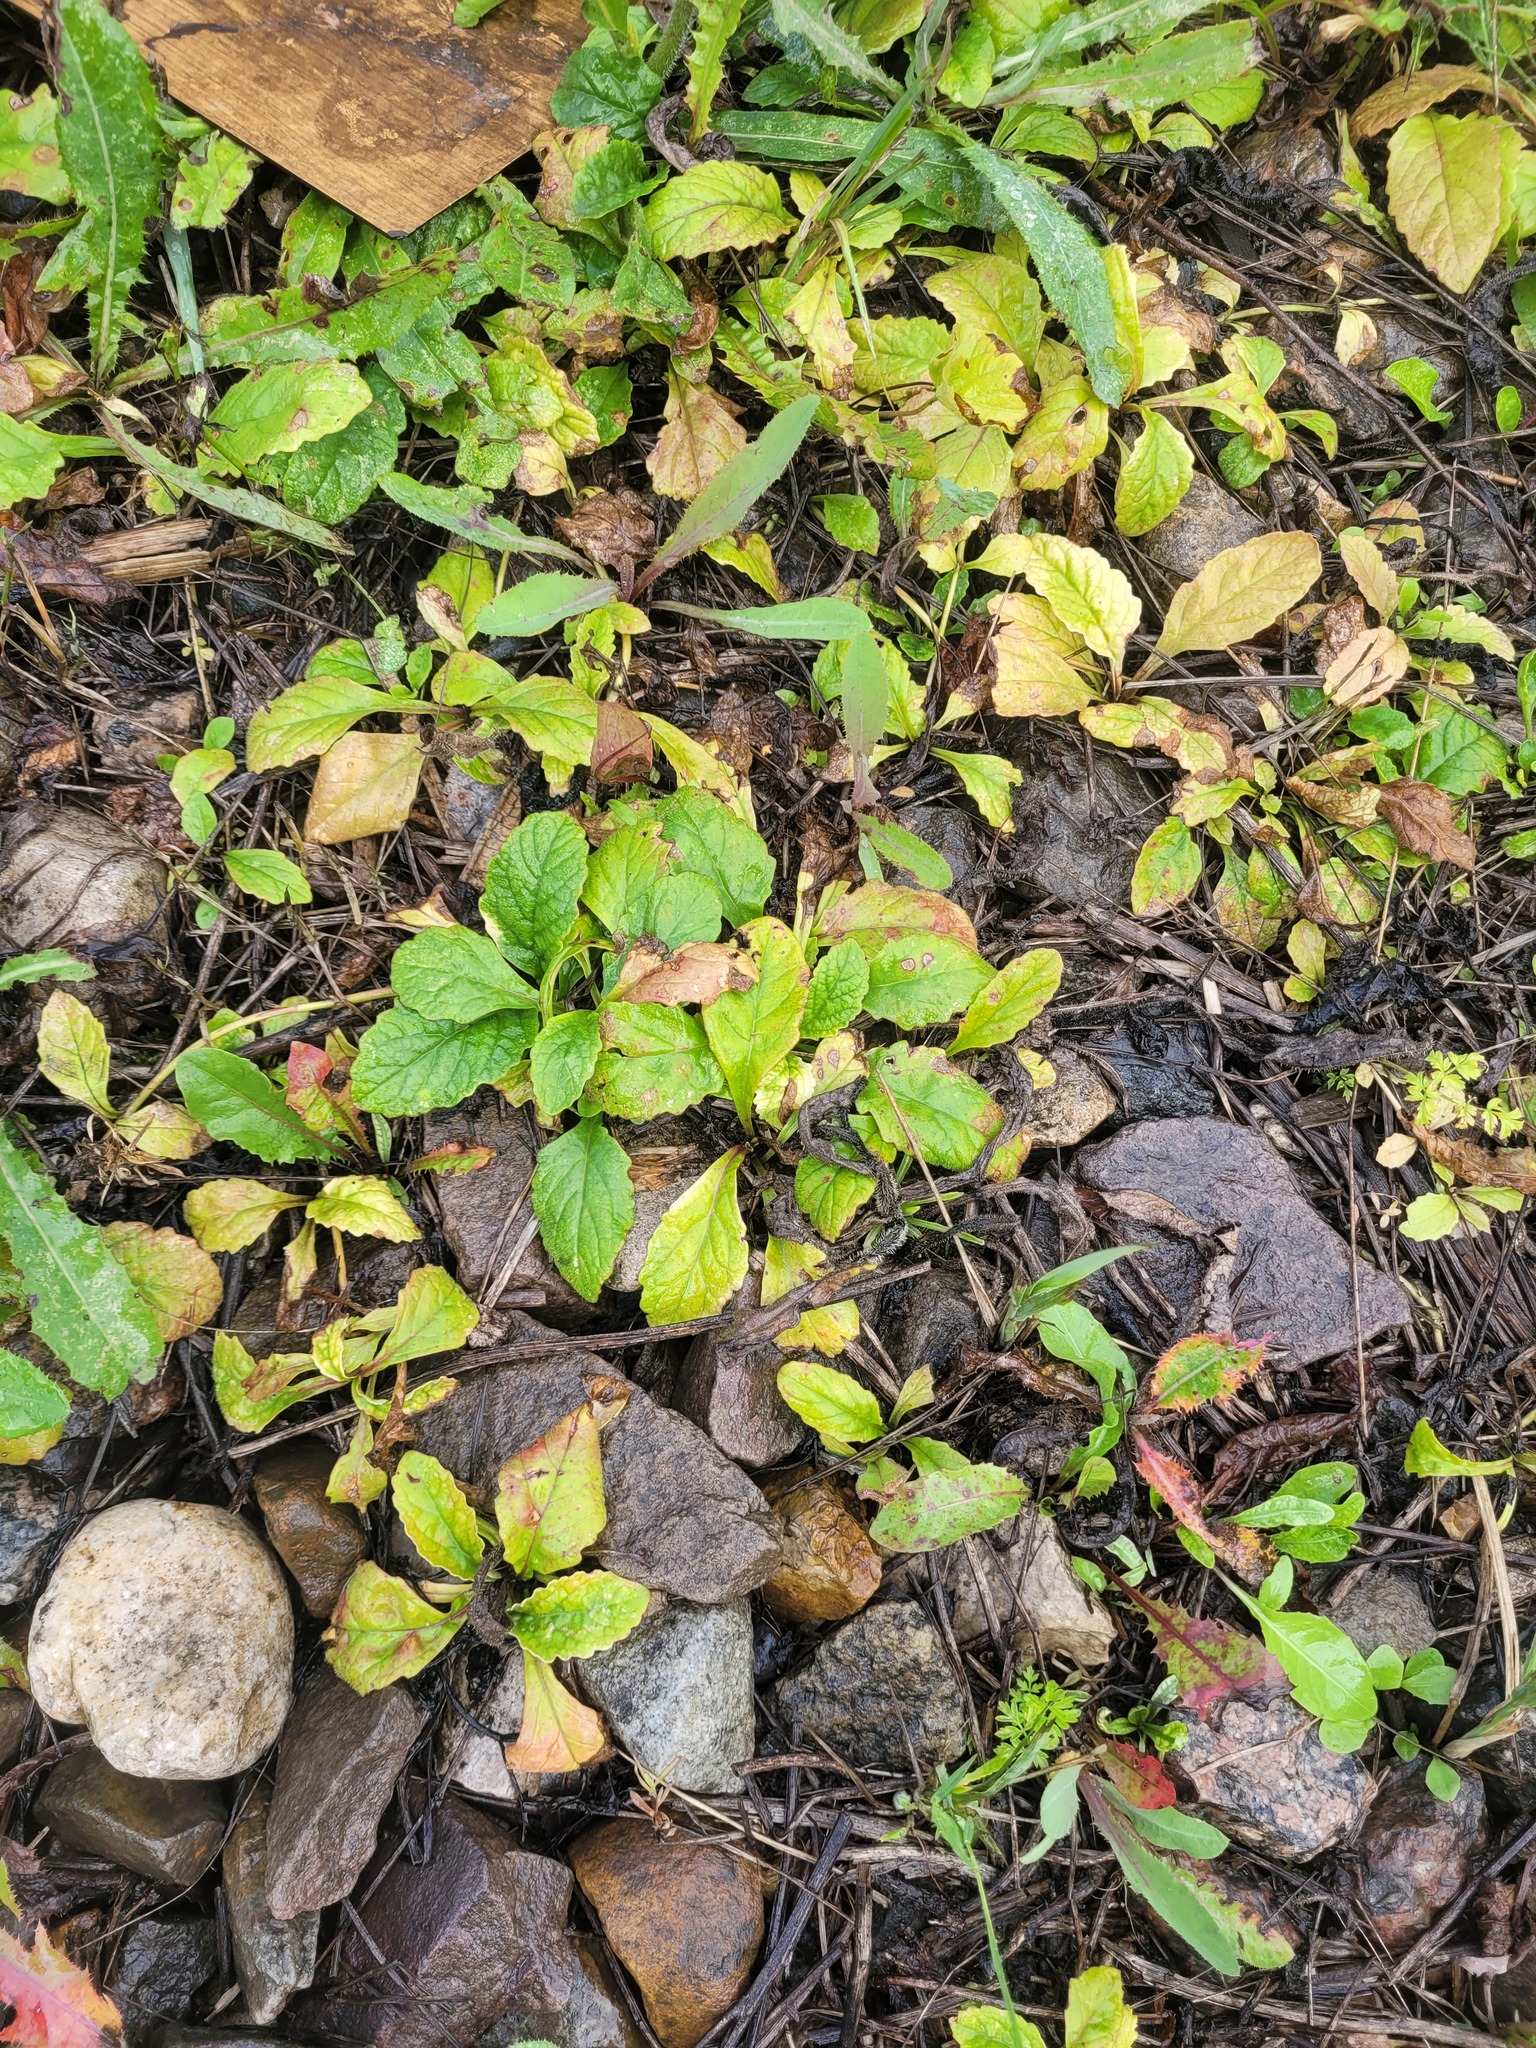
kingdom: Plantae
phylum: Tracheophyta
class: Magnoliopsida
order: Lamiales
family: Lamiaceae
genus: Ajuga
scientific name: Ajuga reptans
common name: Bugle
